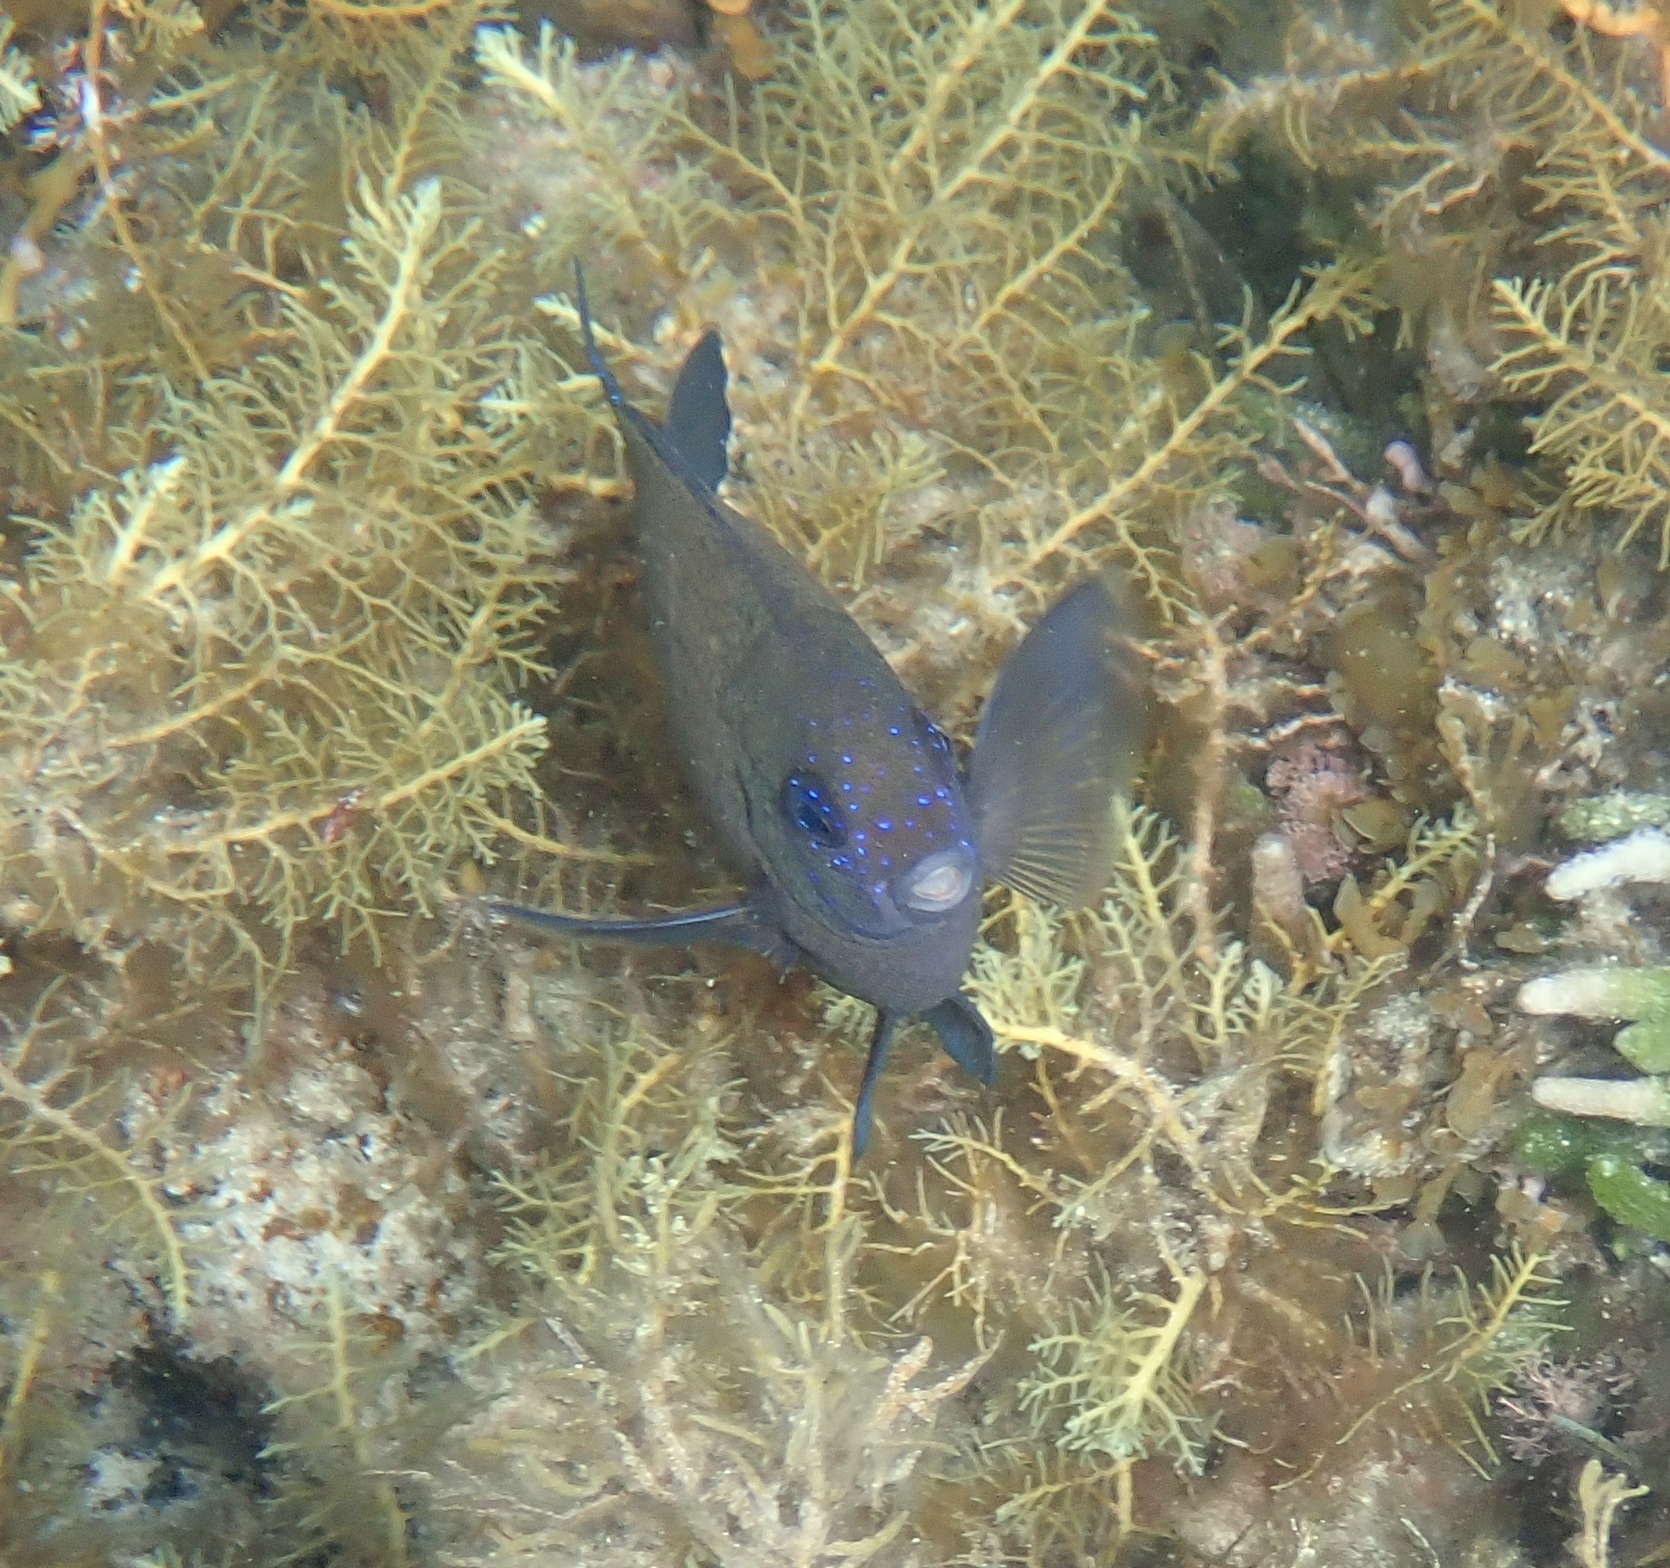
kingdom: Animalia
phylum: Chordata
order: Perciformes
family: Pomacentridae
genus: Parma
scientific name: Parma occidentalis
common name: Western scalyfin
